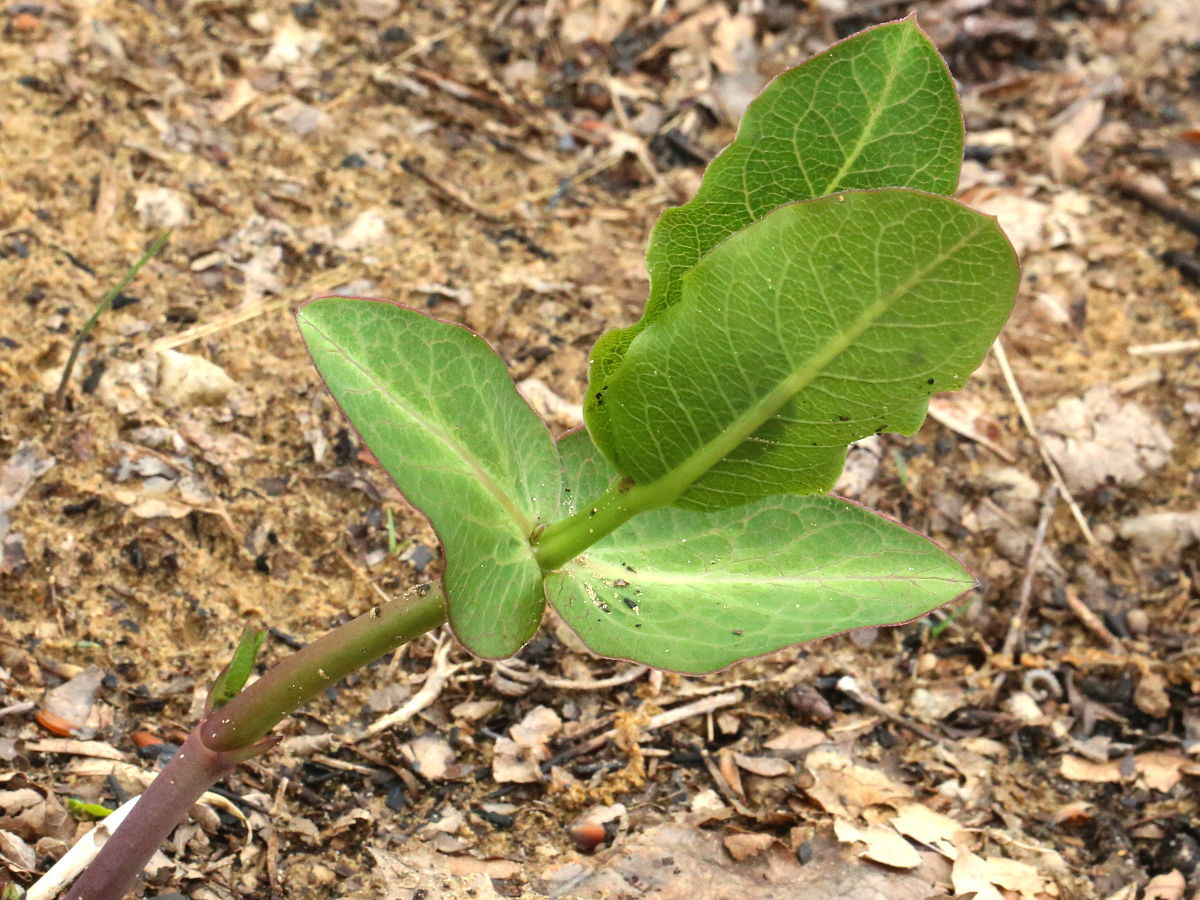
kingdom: Plantae
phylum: Tracheophyta
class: Magnoliopsida
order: Gentianales
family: Apocynaceae
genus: Asclepias
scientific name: Asclepias amplexicaulis
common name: Blunt-leaf milkweed
